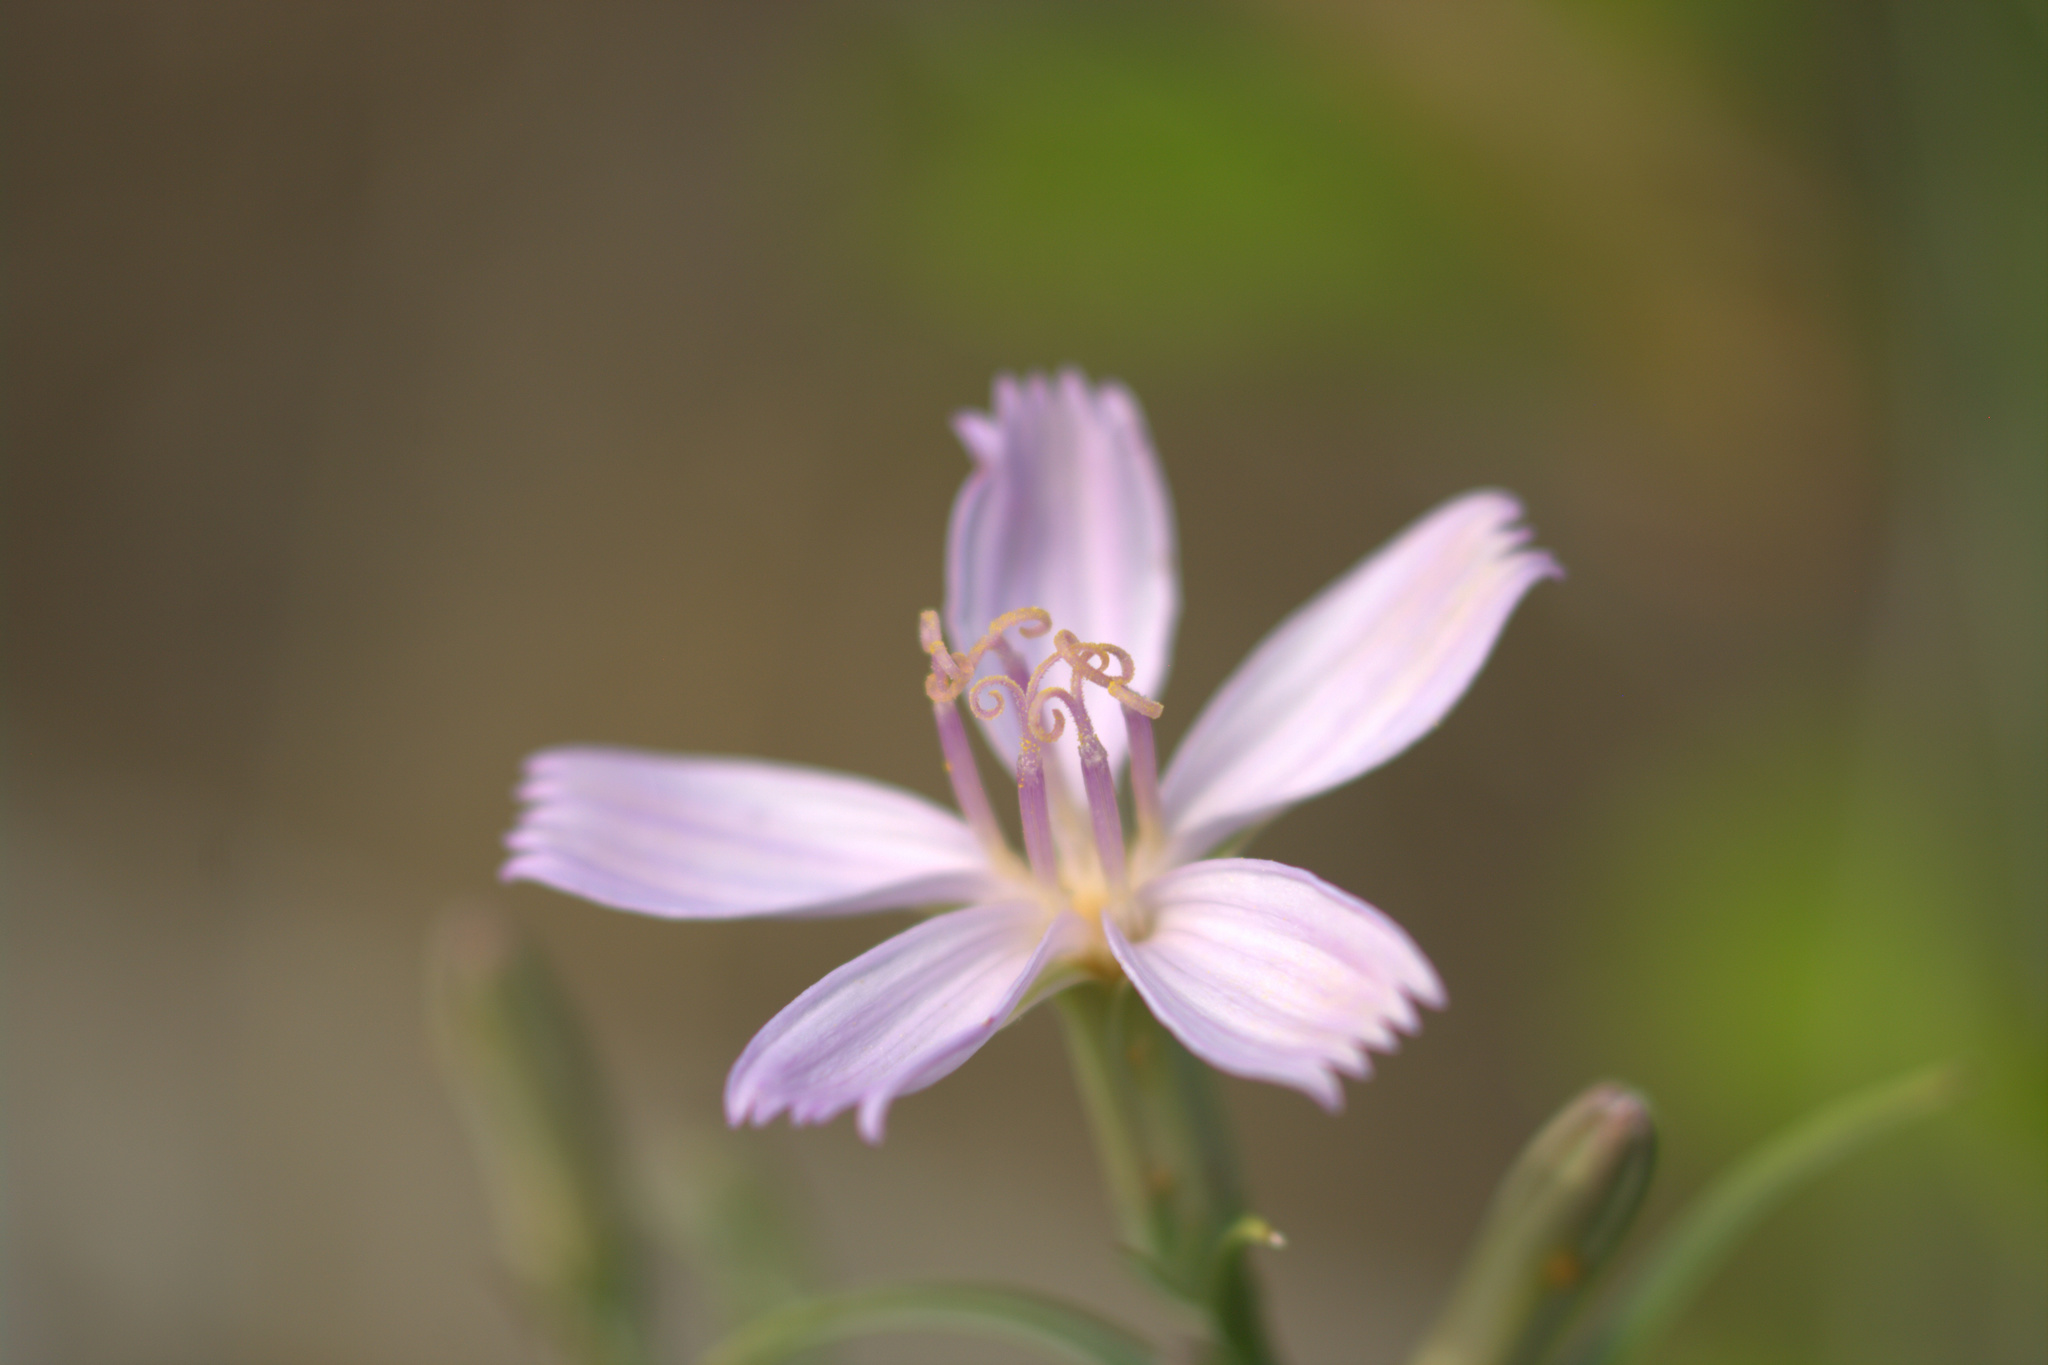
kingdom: Plantae
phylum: Tracheophyta
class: Magnoliopsida
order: Asterales
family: Asteraceae
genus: Lygodesmia
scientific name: Lygodesmia juncea
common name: Common skeletonweed
